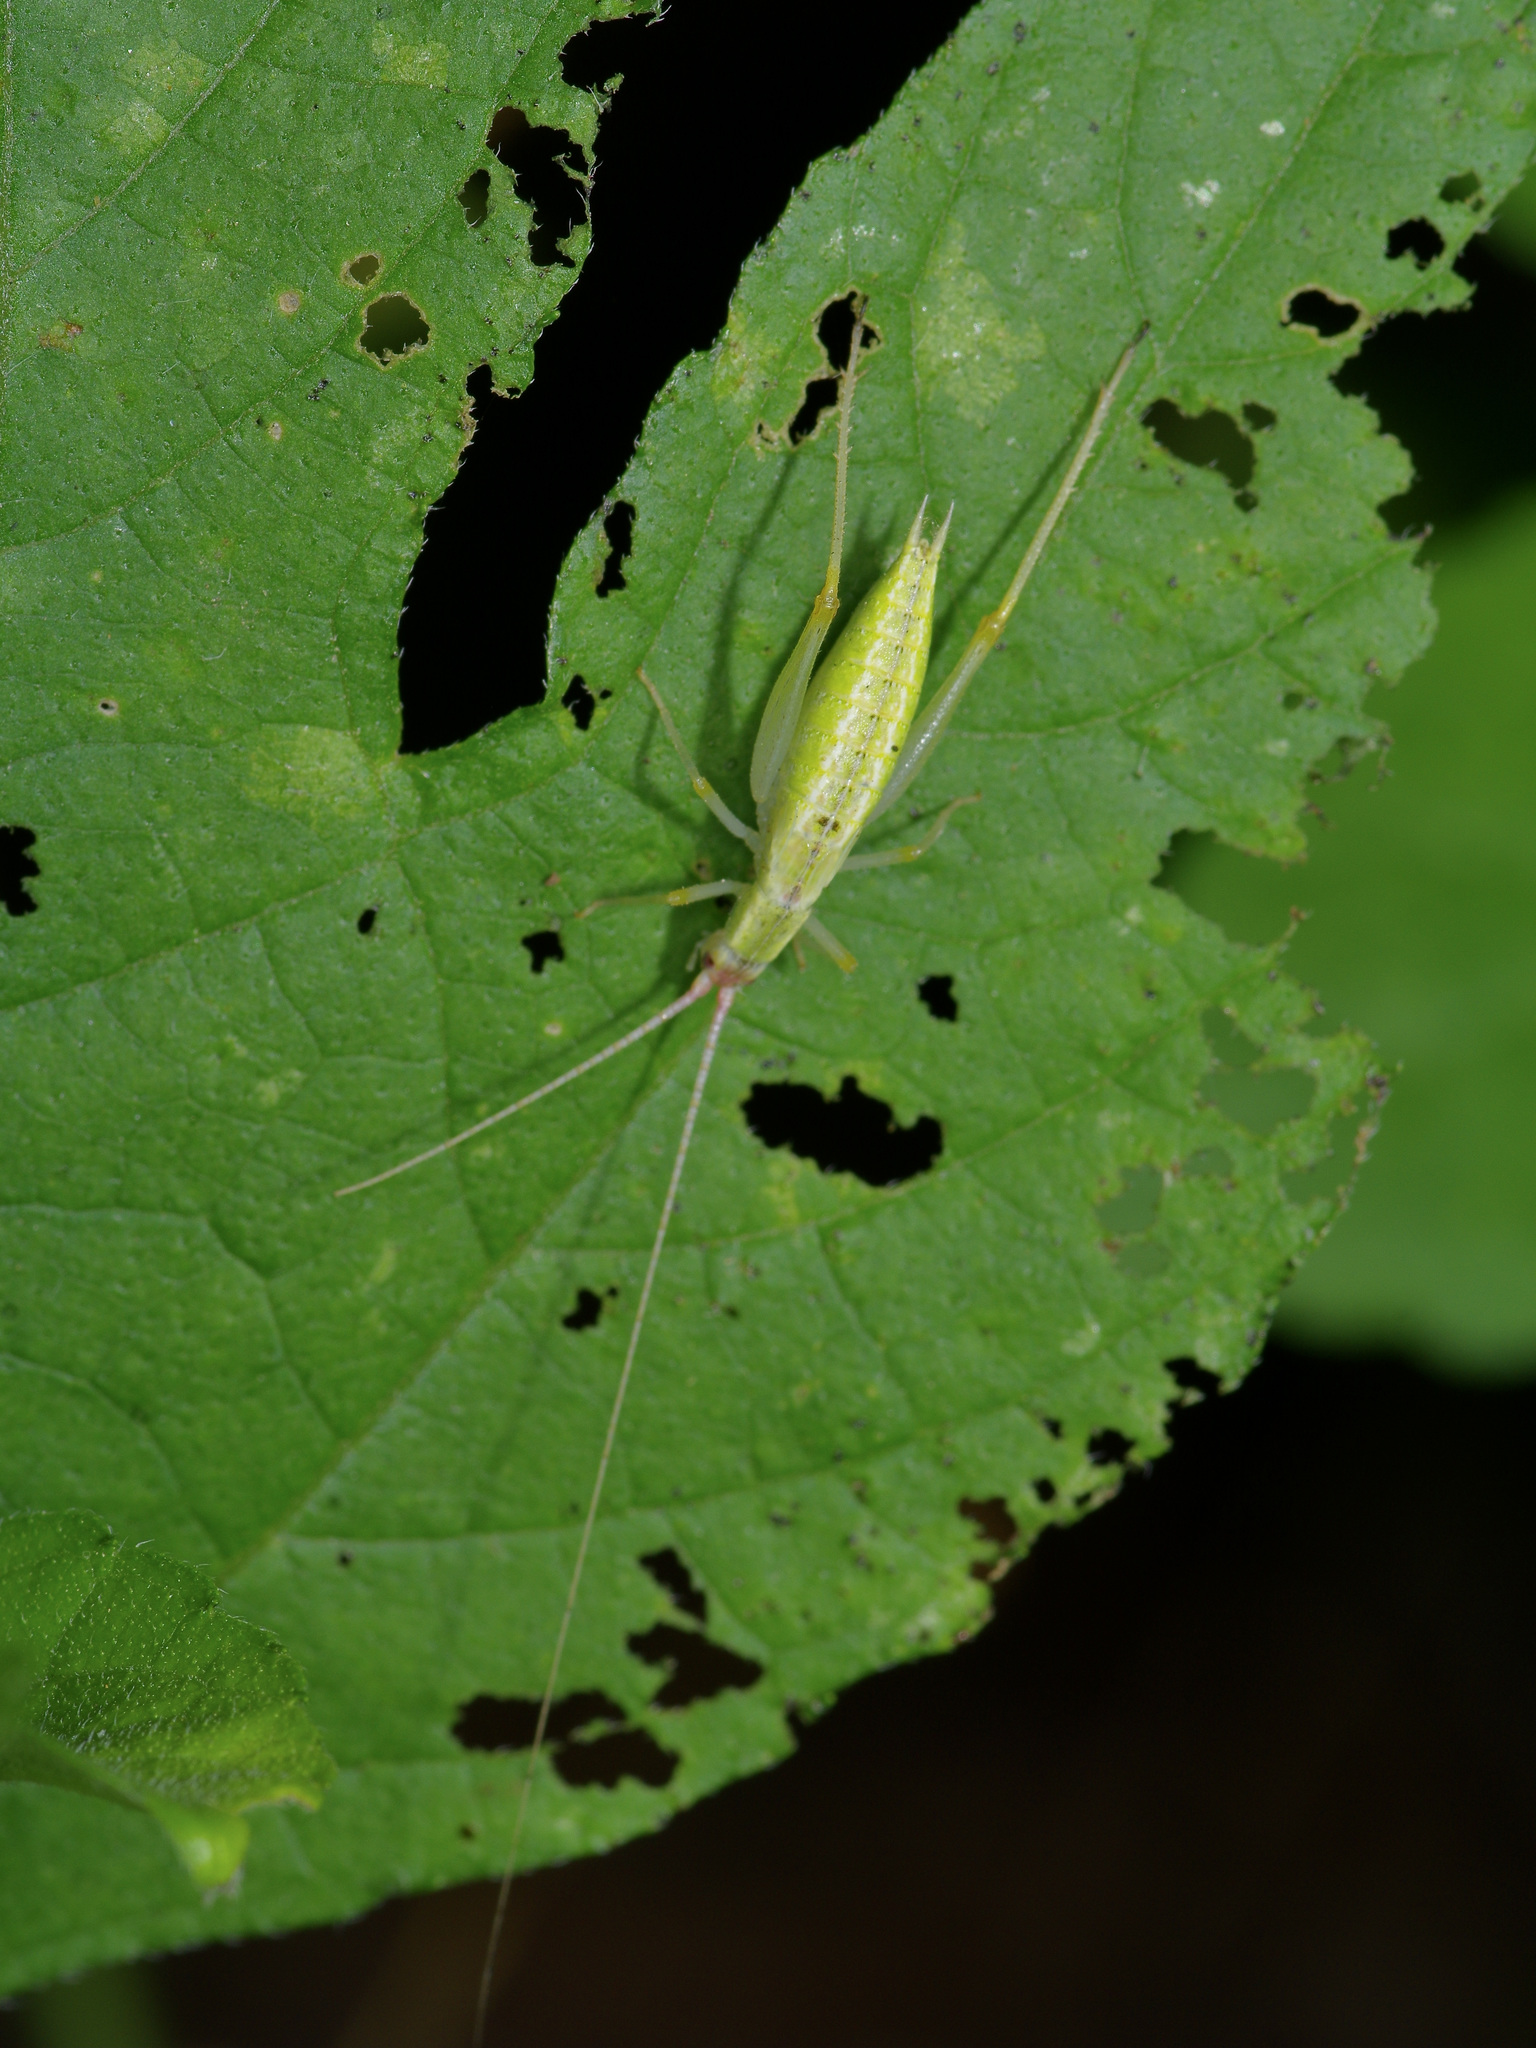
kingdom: Animalia
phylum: Arthropoda
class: Insecta
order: Orthoptera
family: Gryllidae
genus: Oecanthus
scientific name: Oecanthus latipennis
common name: Broad-winged tree cricket
